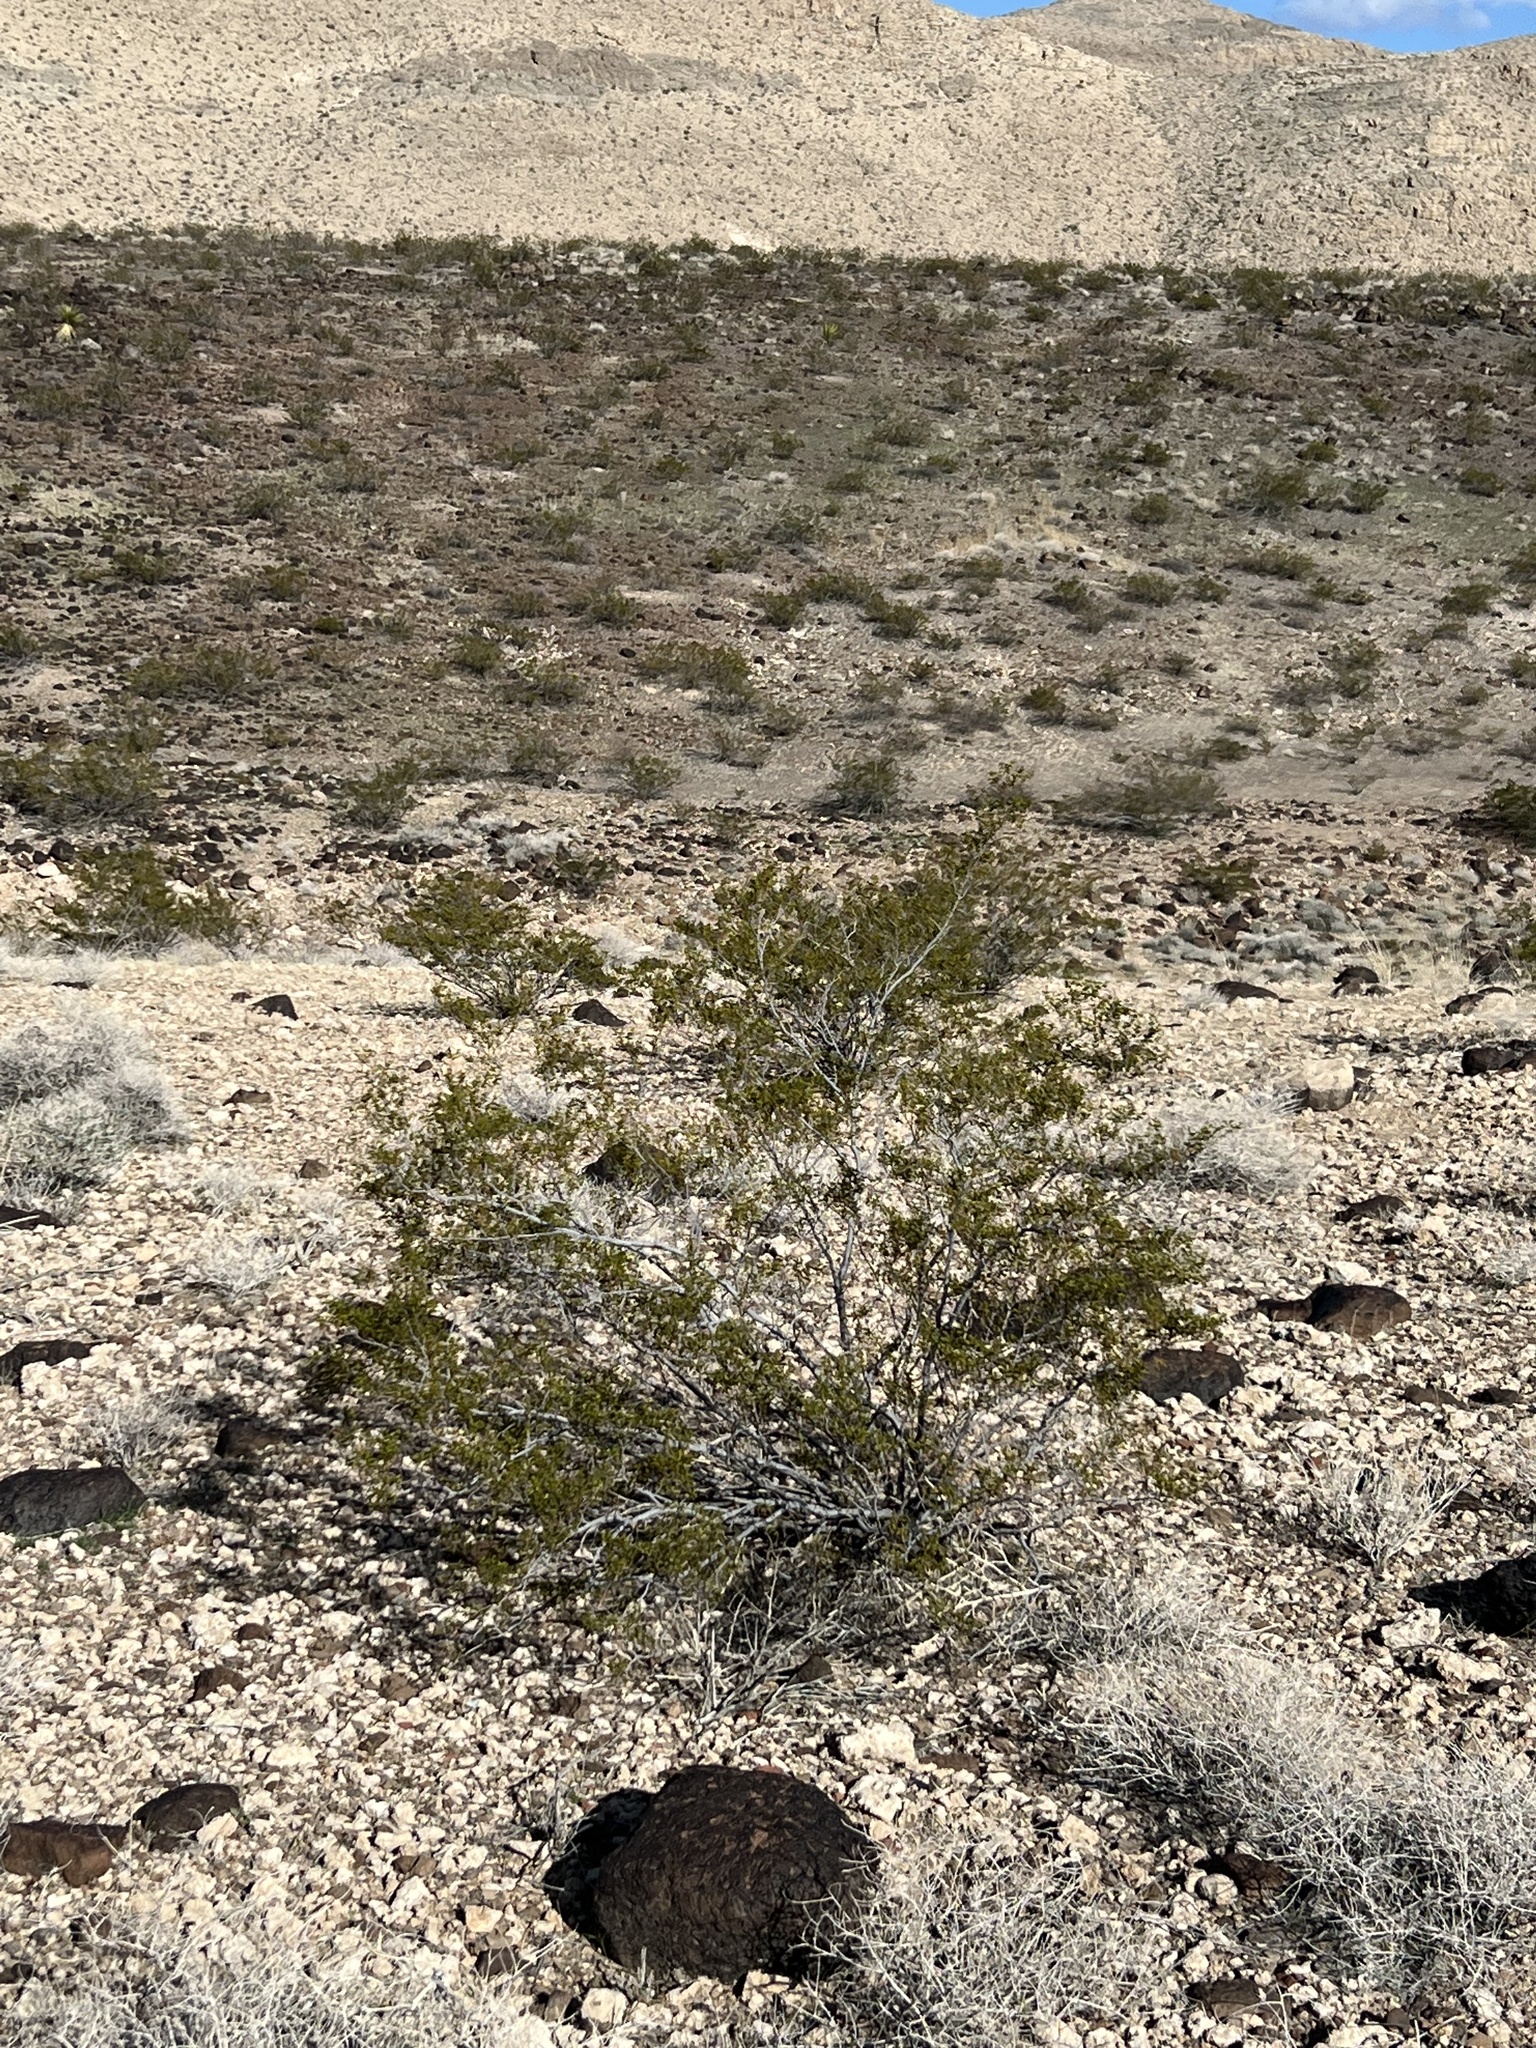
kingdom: Plantae
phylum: Tracheophyta
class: Magnoliopsida
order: Zygophyllales
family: Zygophyllaceae
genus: Larrea
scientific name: Larrea tridentata
